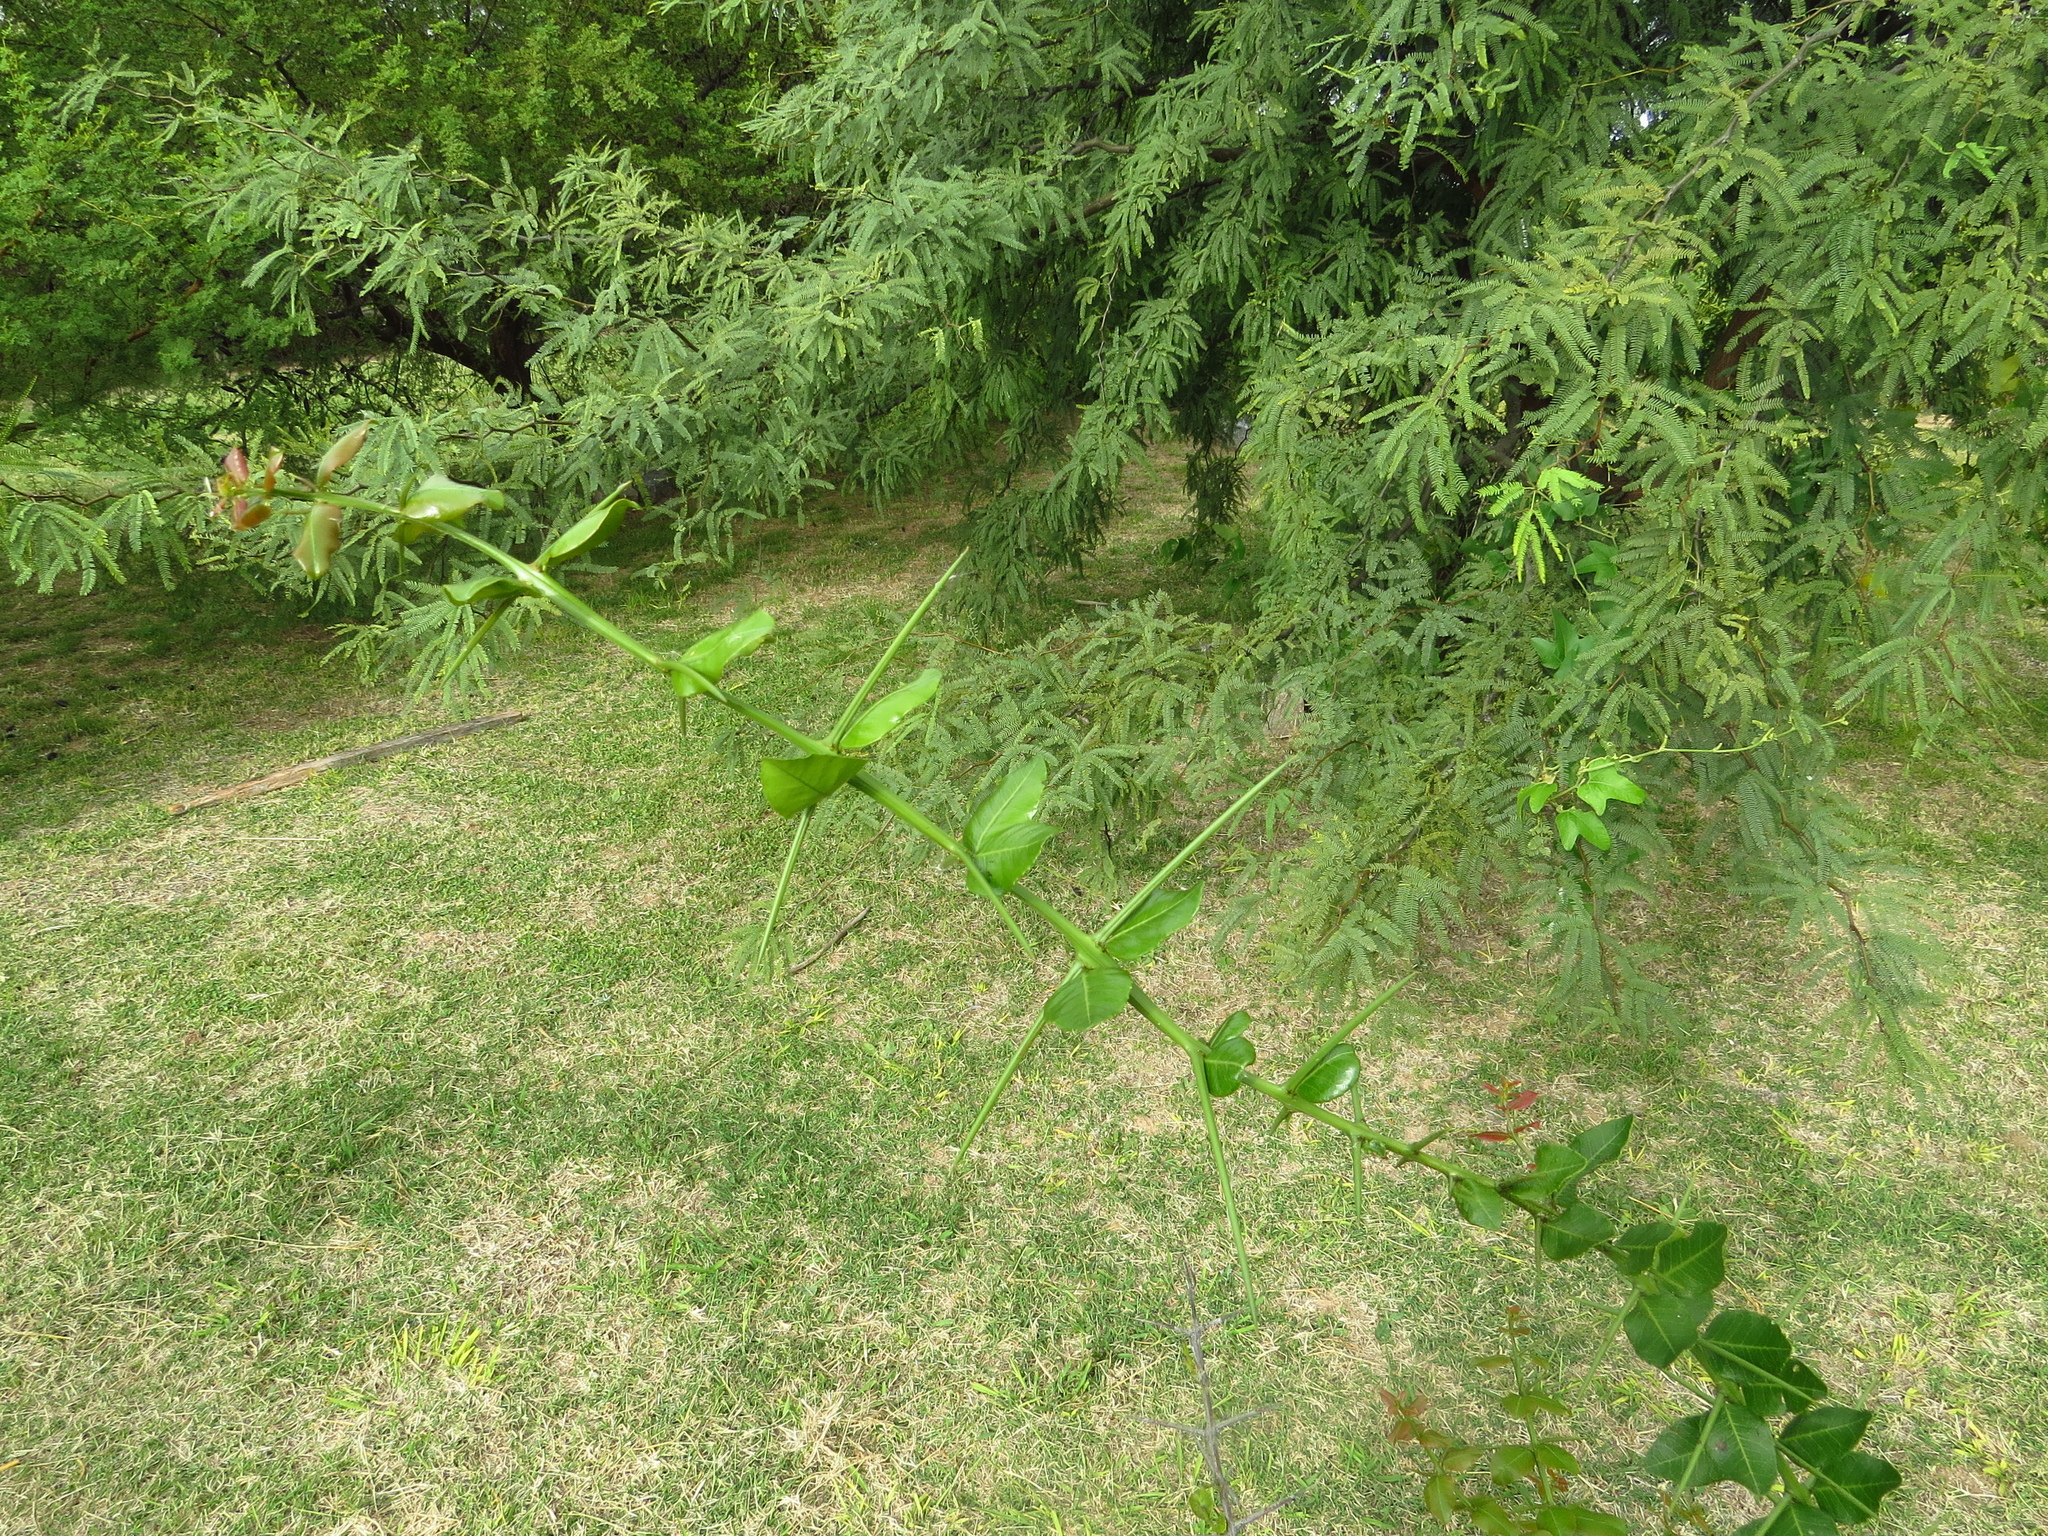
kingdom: Plantae
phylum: Tracheophyta
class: Magnoliopsida
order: Rosales
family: Rhamnaceae
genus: Scutia
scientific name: Scutia buxifolia
